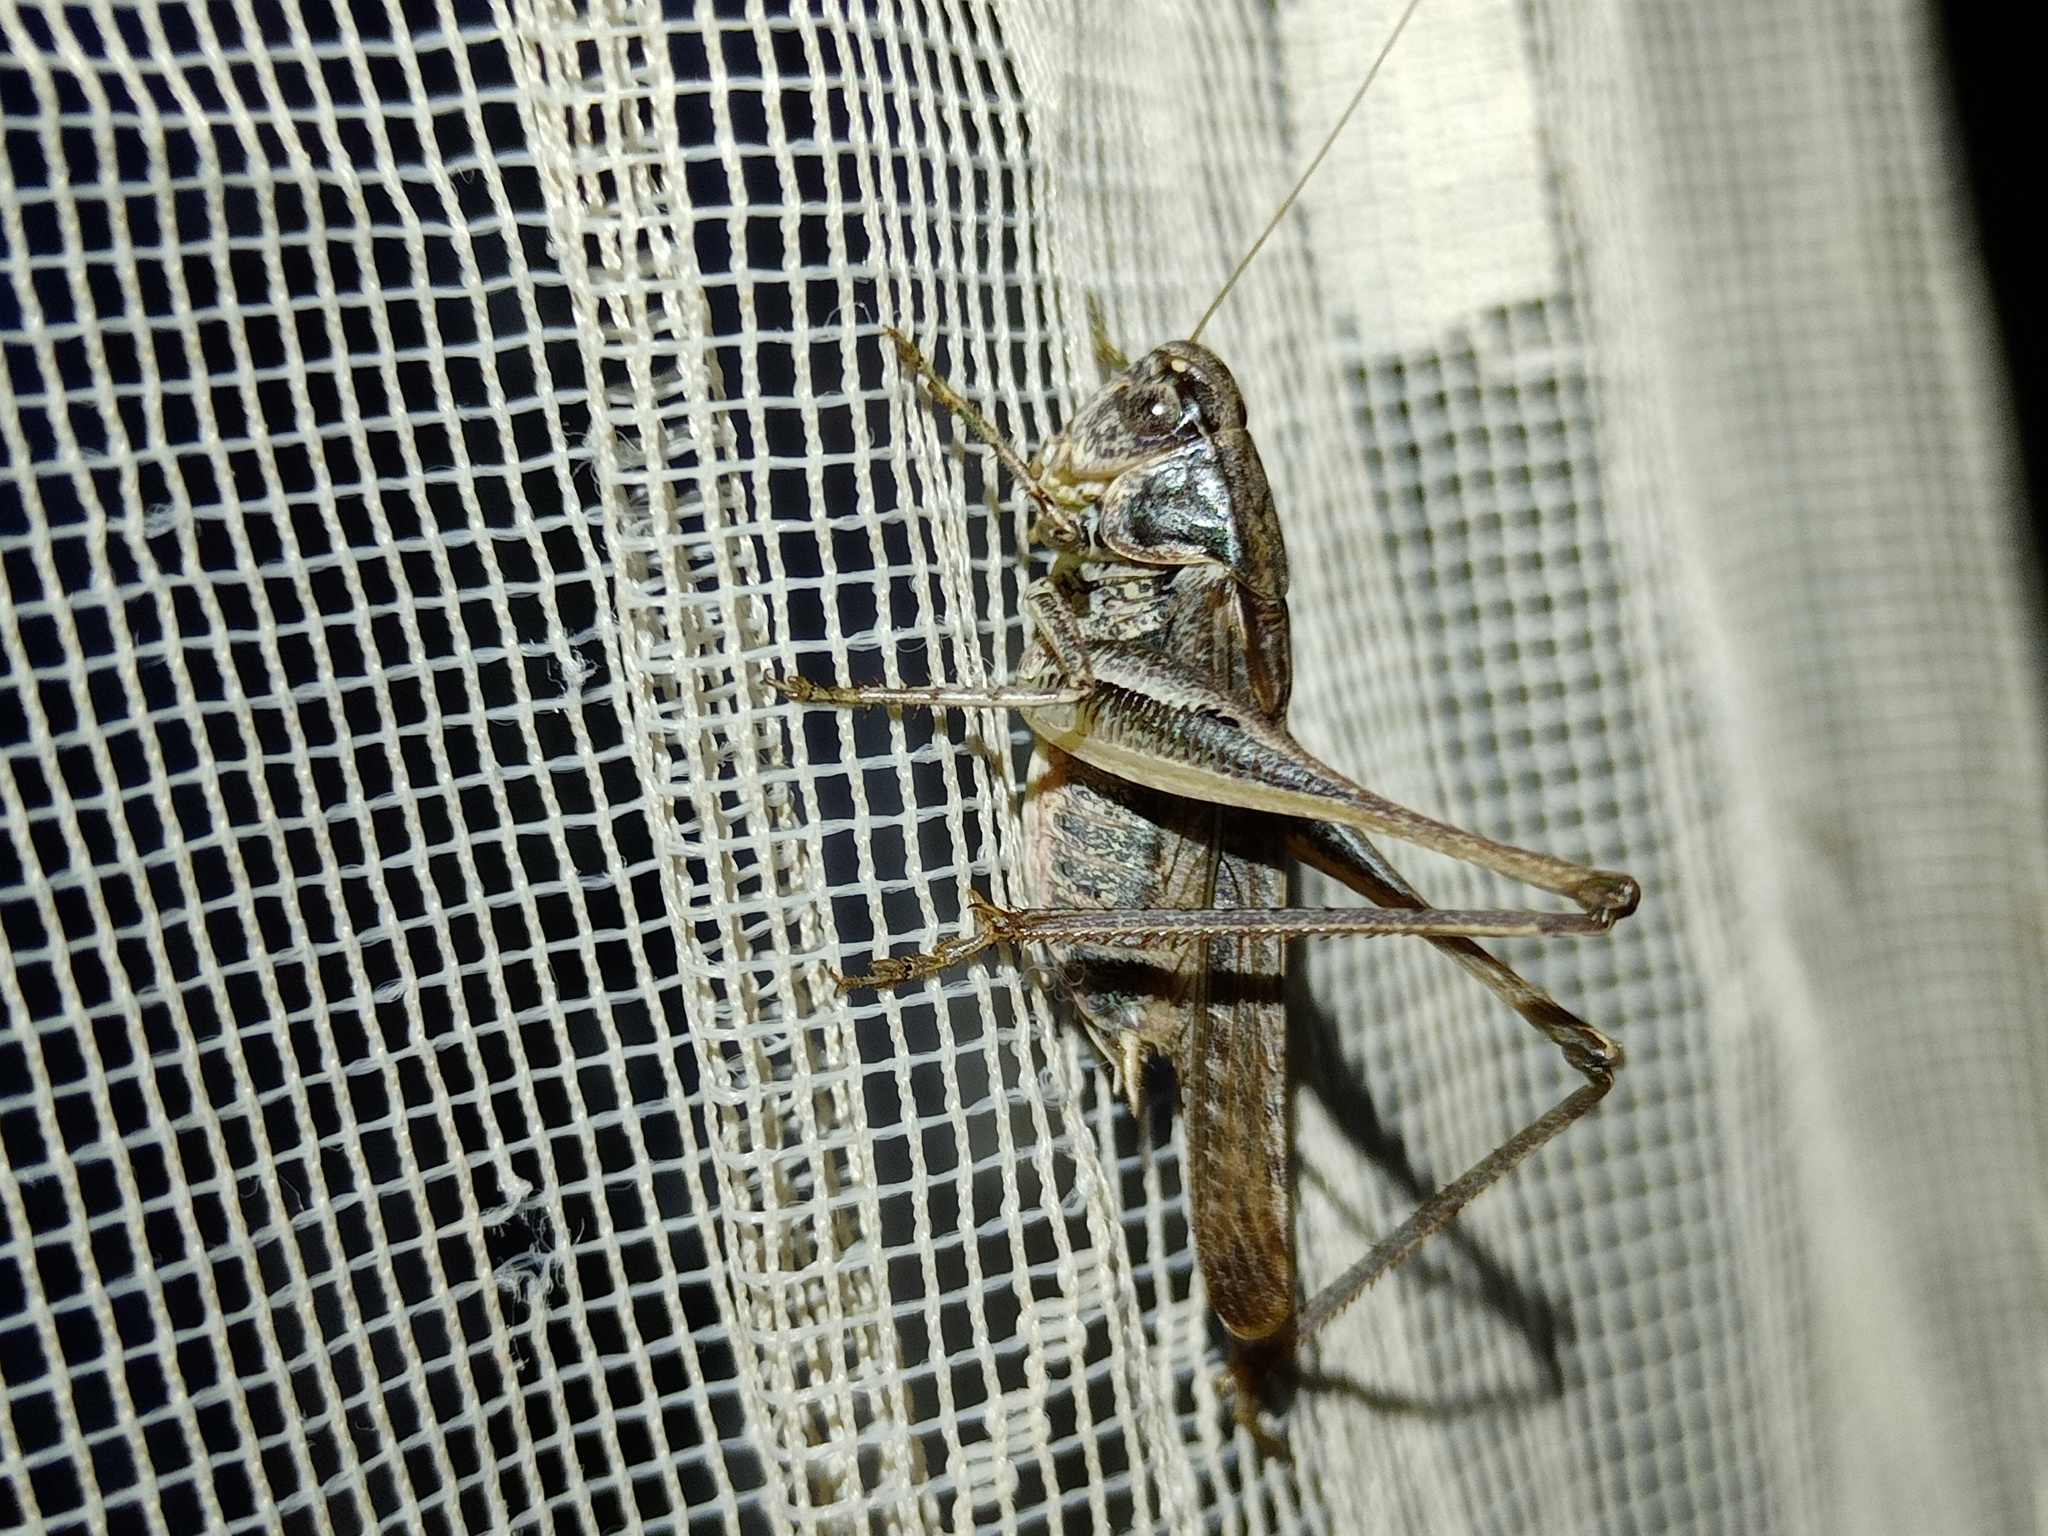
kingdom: Animalia
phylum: Arthropoda
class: Insecta
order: Orthoptera
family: Tettigoniidae
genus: Platycleis
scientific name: Platycleis albopunctata
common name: Grey bush-cricket
